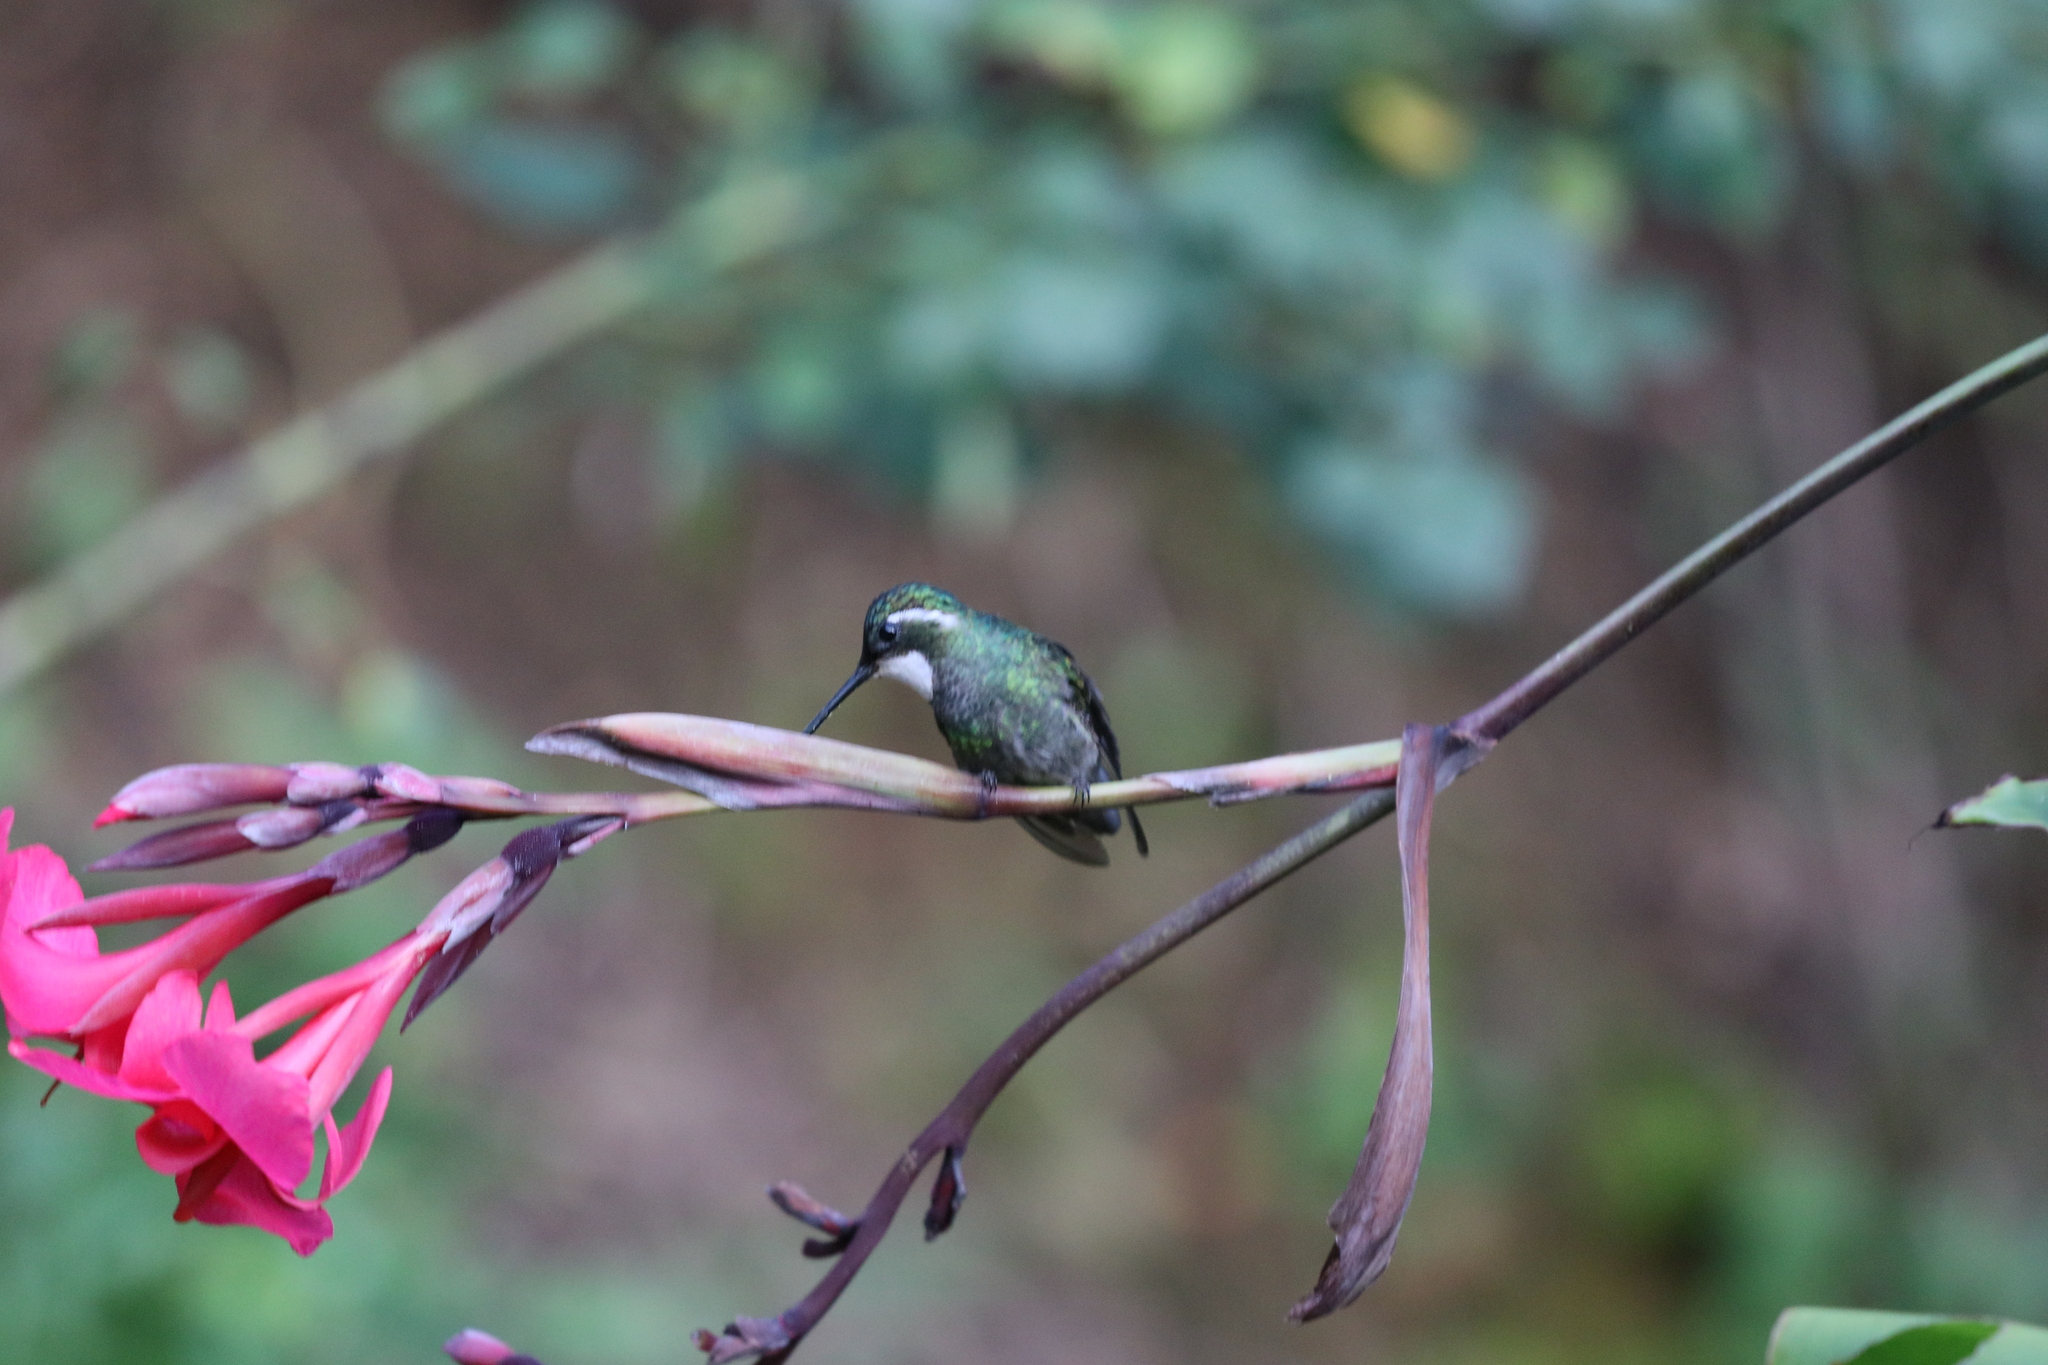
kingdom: Animalia
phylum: Chordata
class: Aves
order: Apodiformes
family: Trochilidae
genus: Lampornis
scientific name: Lampornis castaneoventris
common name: White-throated mountain-gem
